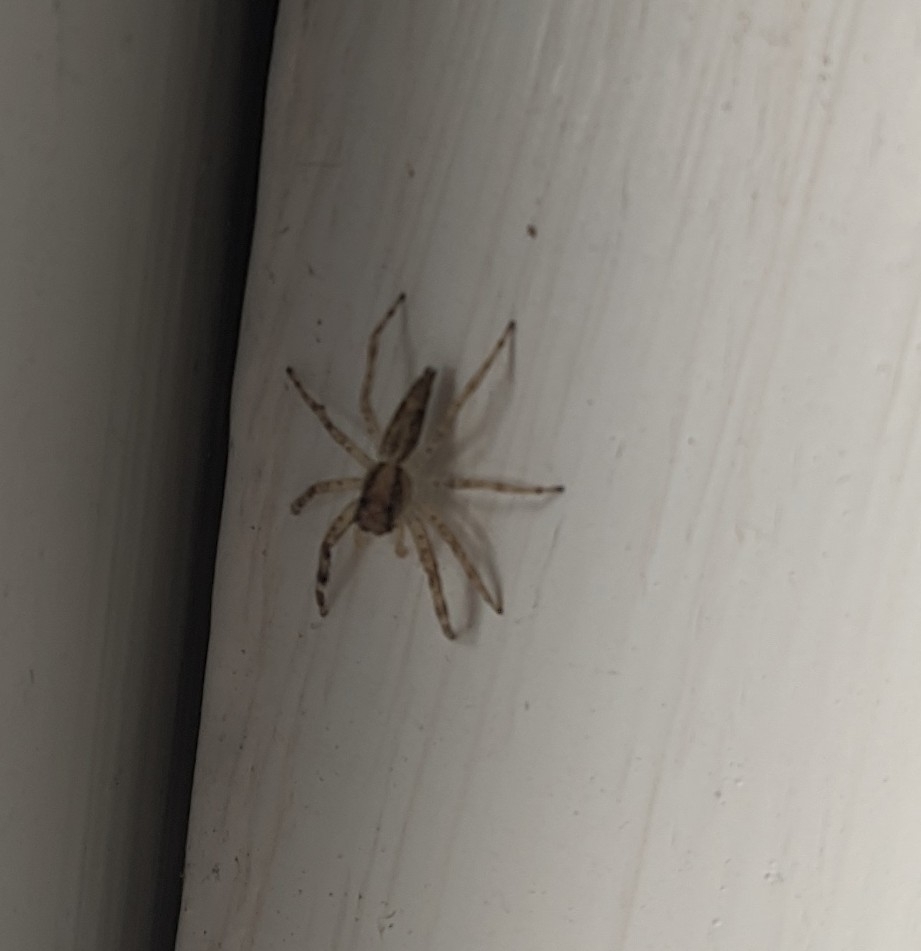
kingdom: Animalia
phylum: Arthropoda
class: Arachnida
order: Araneae
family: Salticidae
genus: Helpis
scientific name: Helpis minitabunda
